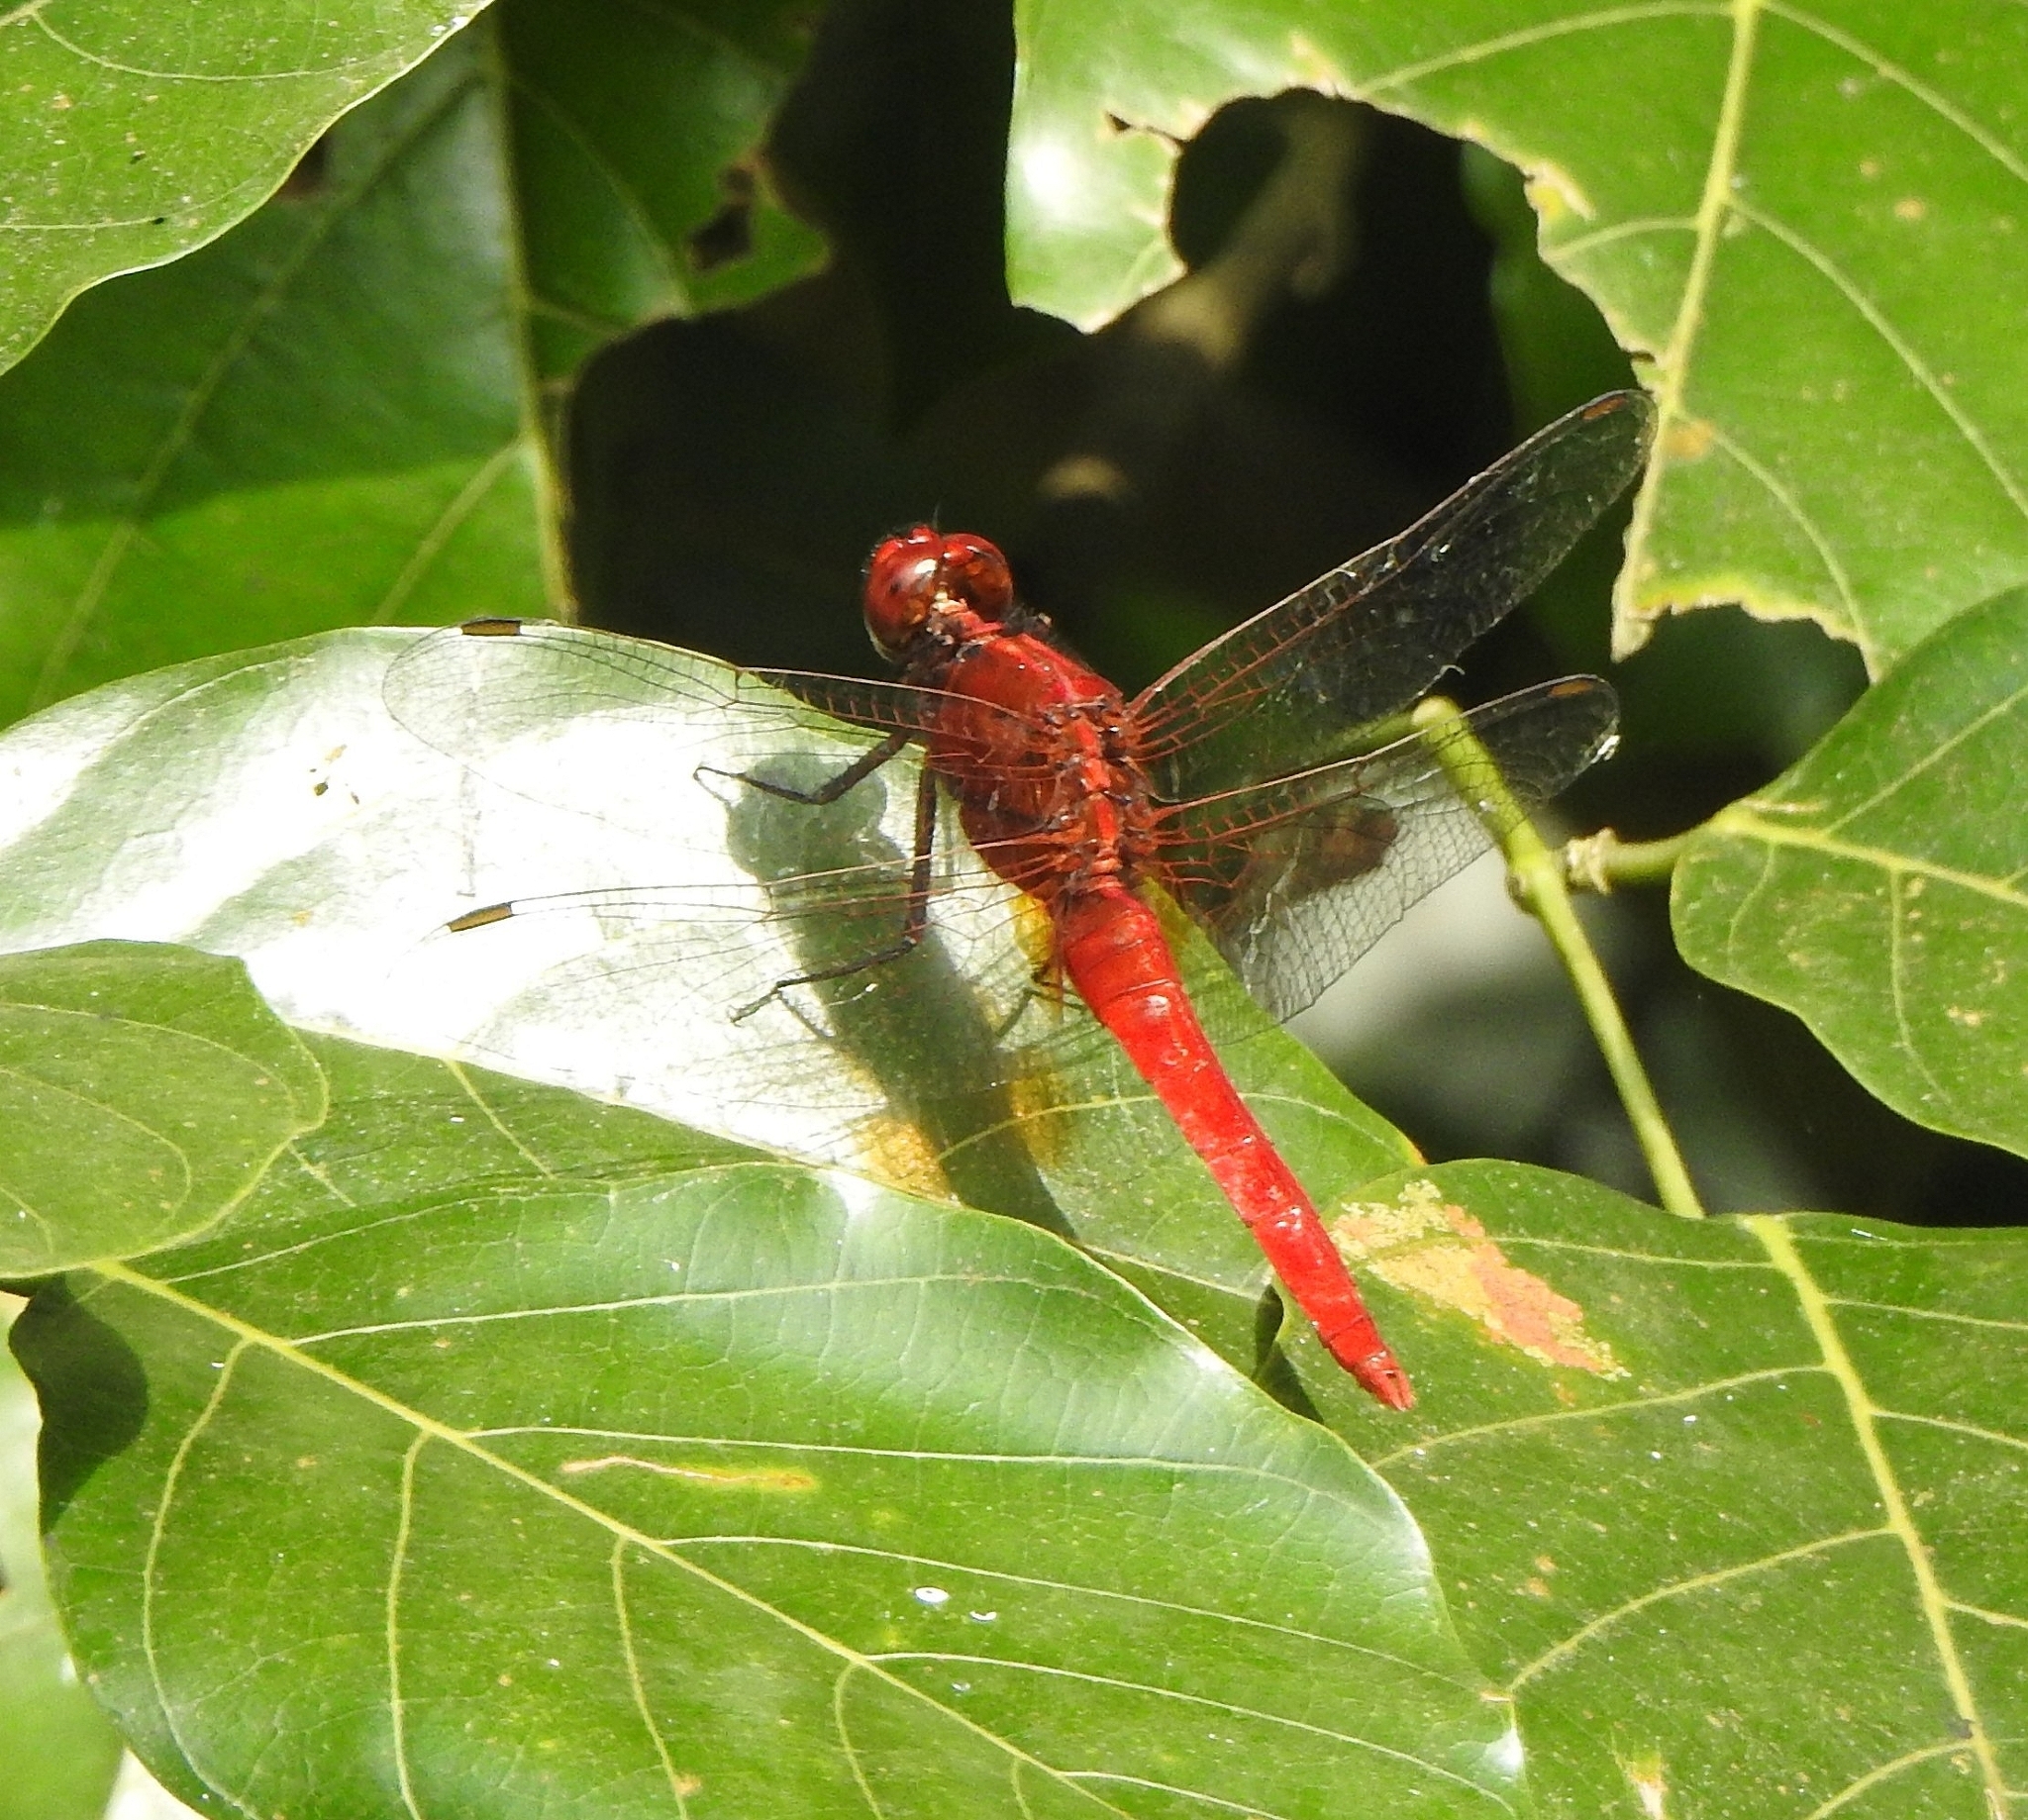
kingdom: Animalia
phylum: Arthropoda
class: Insecta
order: Odonata
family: Libellulidae
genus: Rhodothemis
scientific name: Rhodothemis rufa
